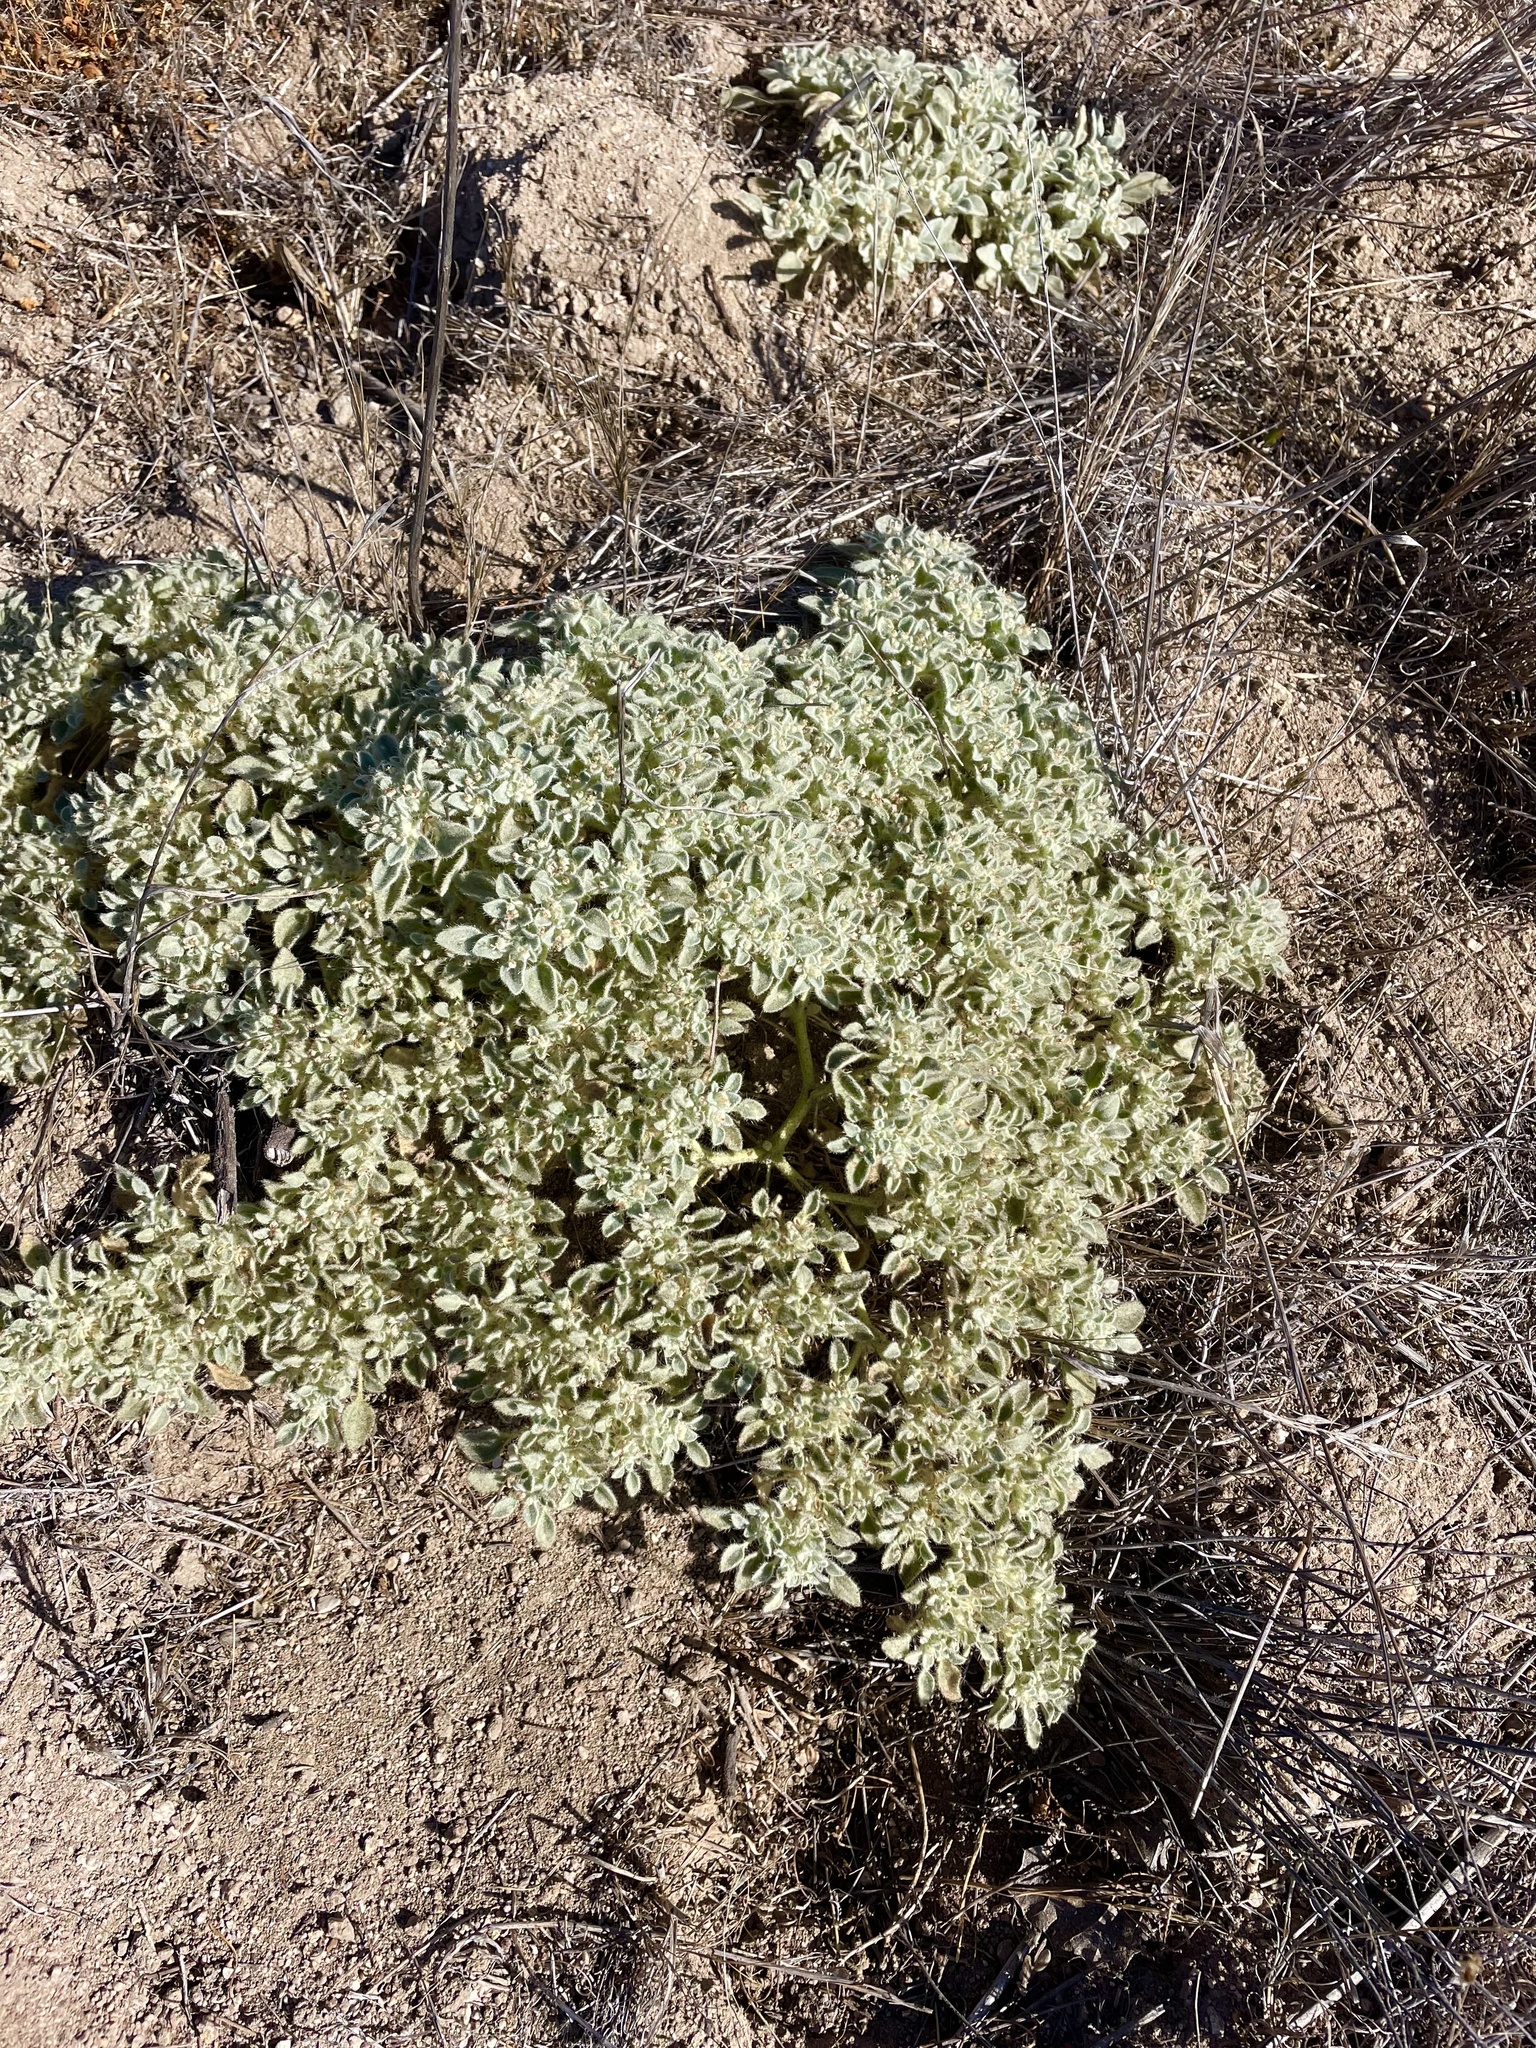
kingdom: Plantae
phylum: Tracheophyta
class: Magnoliopsida
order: Malpighiales
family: Euphorbiaceae
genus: Croton
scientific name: Croton setiger
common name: Dove weed
